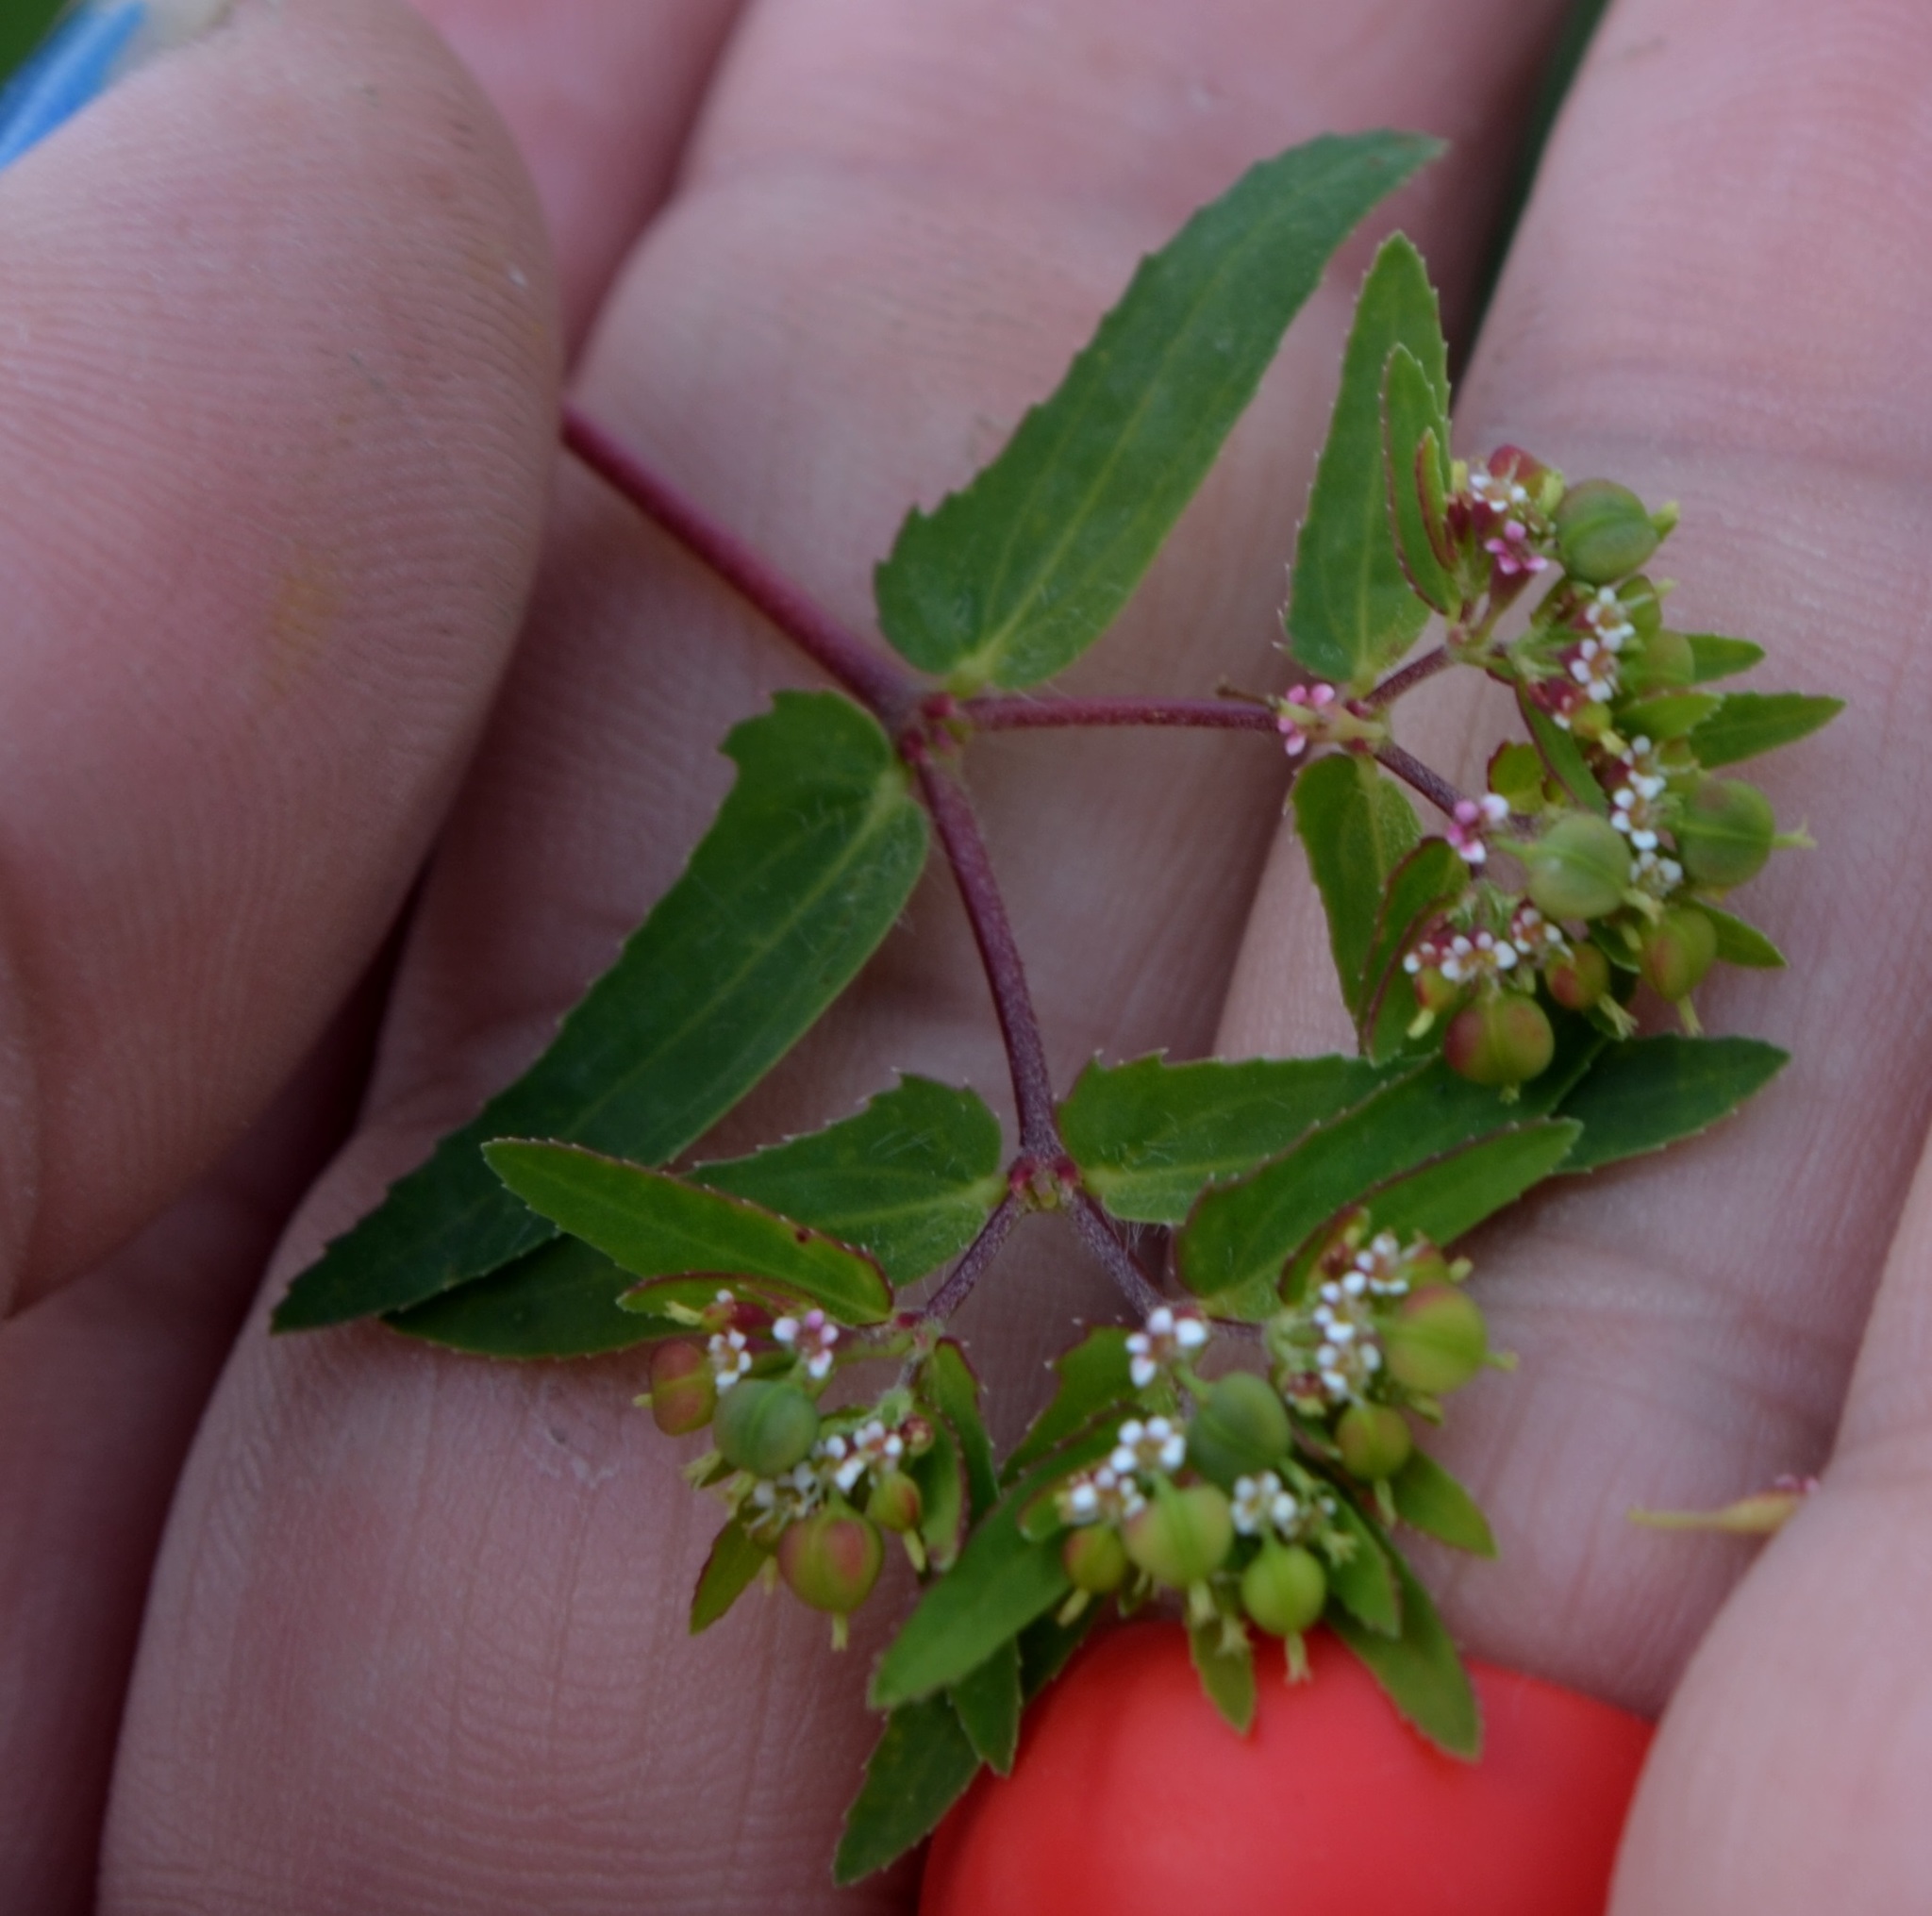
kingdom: Plantae
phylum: Tracheophyta
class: Magnoliopsida
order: Malpighiales
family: Euphorbiaceae
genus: Euphorbia
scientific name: Euphorbia nutans
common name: Eyebane
